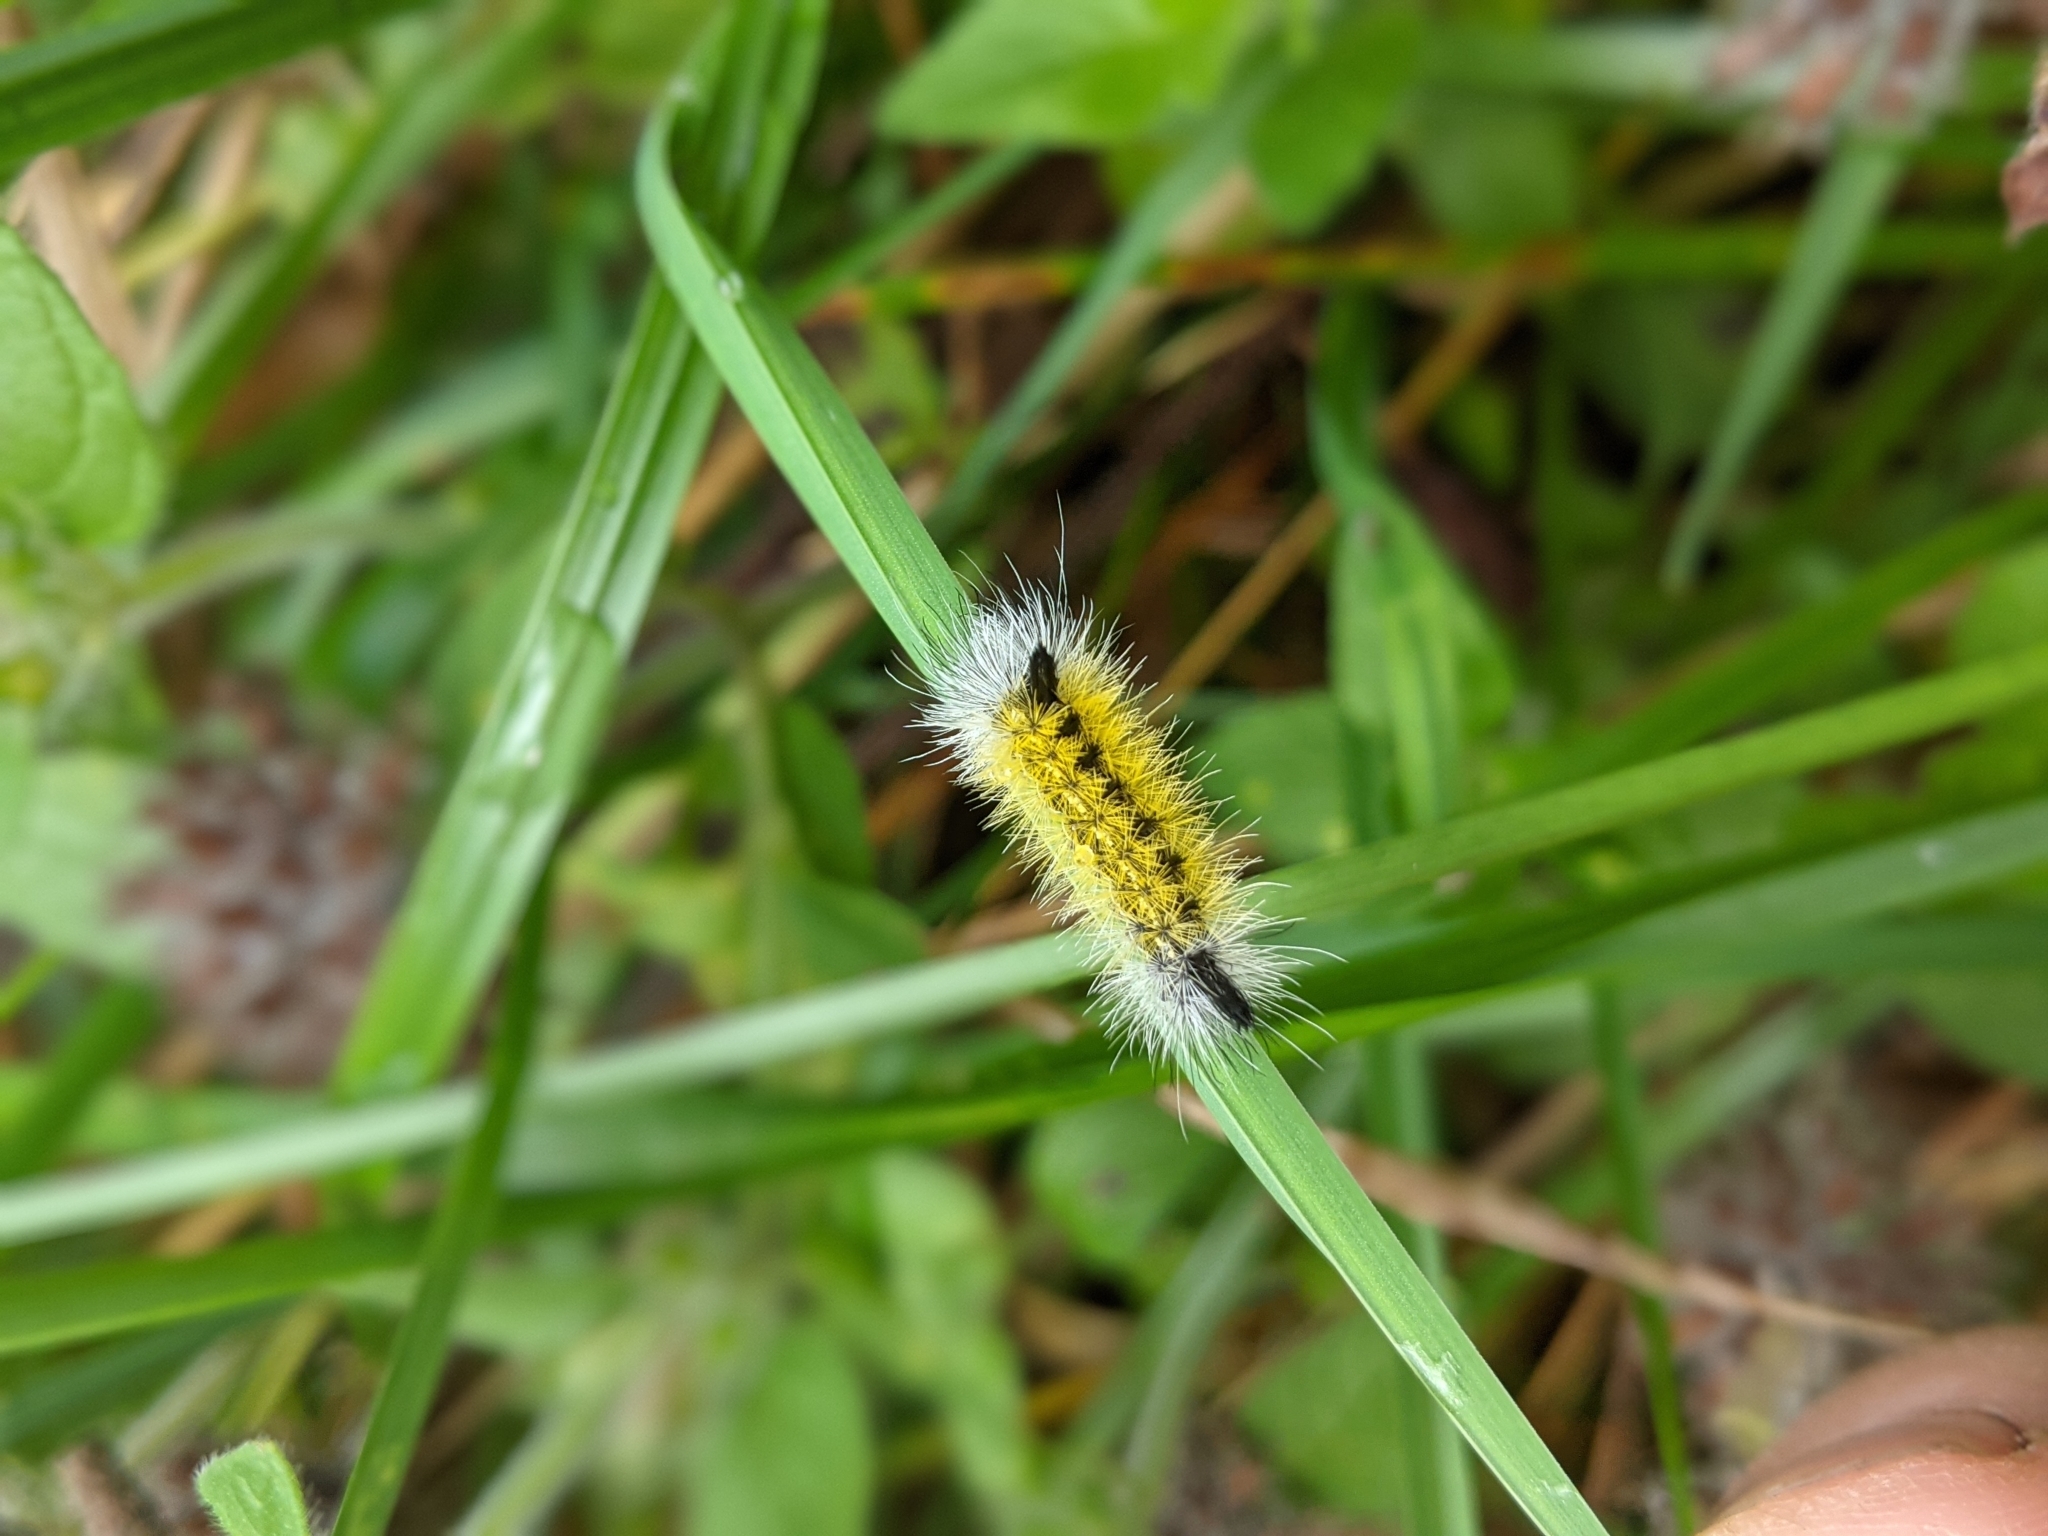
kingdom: Animalia
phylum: Arthropoda
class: Insecta
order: Lepidoptera
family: Erebidae
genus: Ctenucha
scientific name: Ctenucha virginica
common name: Virginia ctenucha moth
